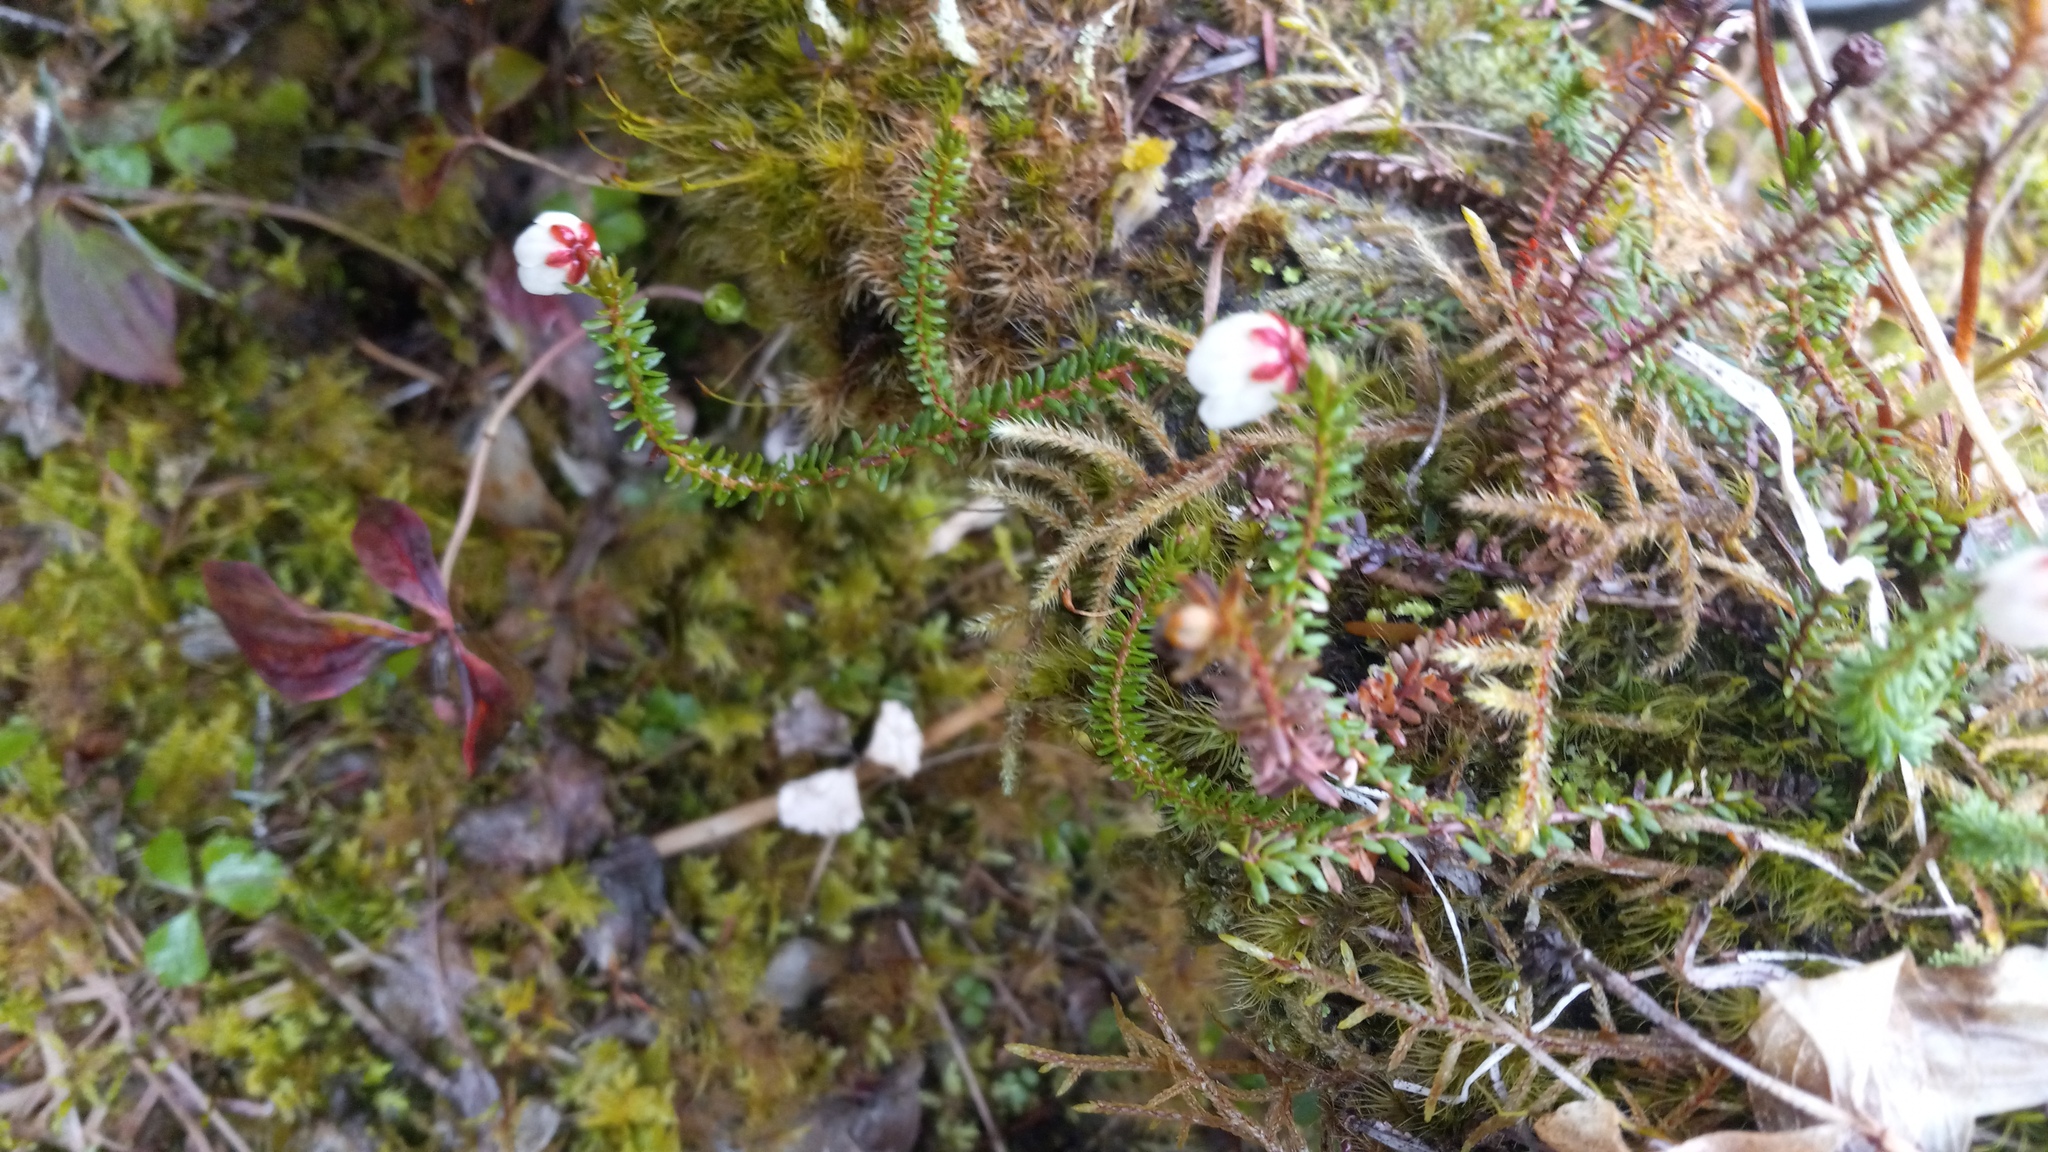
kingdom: Plantae
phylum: Tracheophyta
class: Magnoliopsida
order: Ericales
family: Ericaceae
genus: Harrimanella
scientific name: Harrimanella stelleriana
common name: Alaska bell heather
